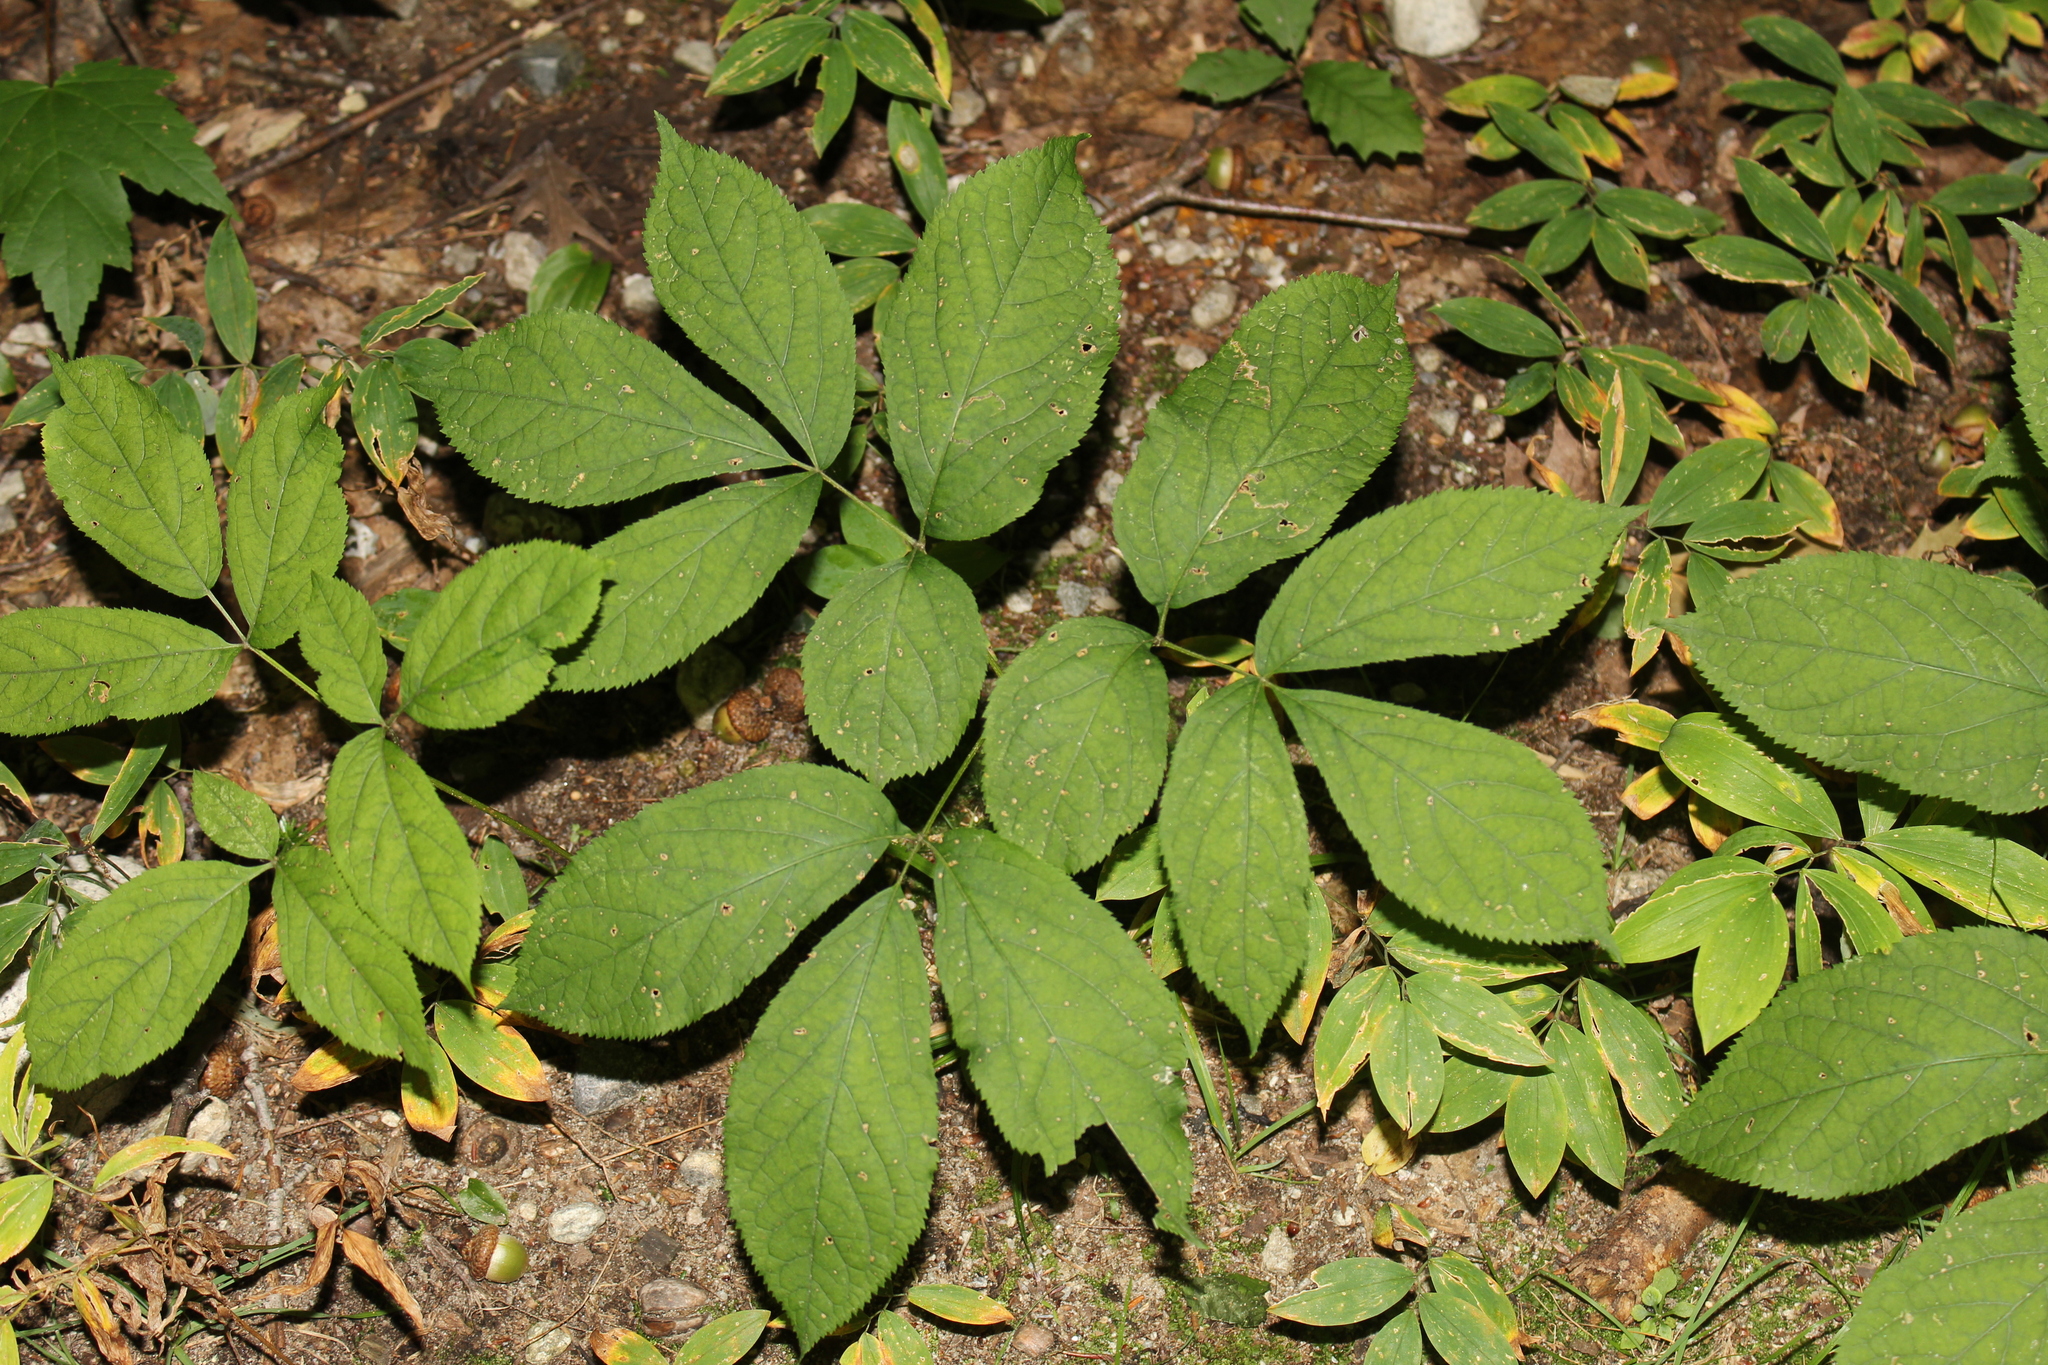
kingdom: Plantae
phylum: Tracheophyta
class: Magnoliopsida
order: Apiales
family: Araliaceae
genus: Aralia
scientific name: Aralia nudicaulis
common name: Wild sarsaparilla
